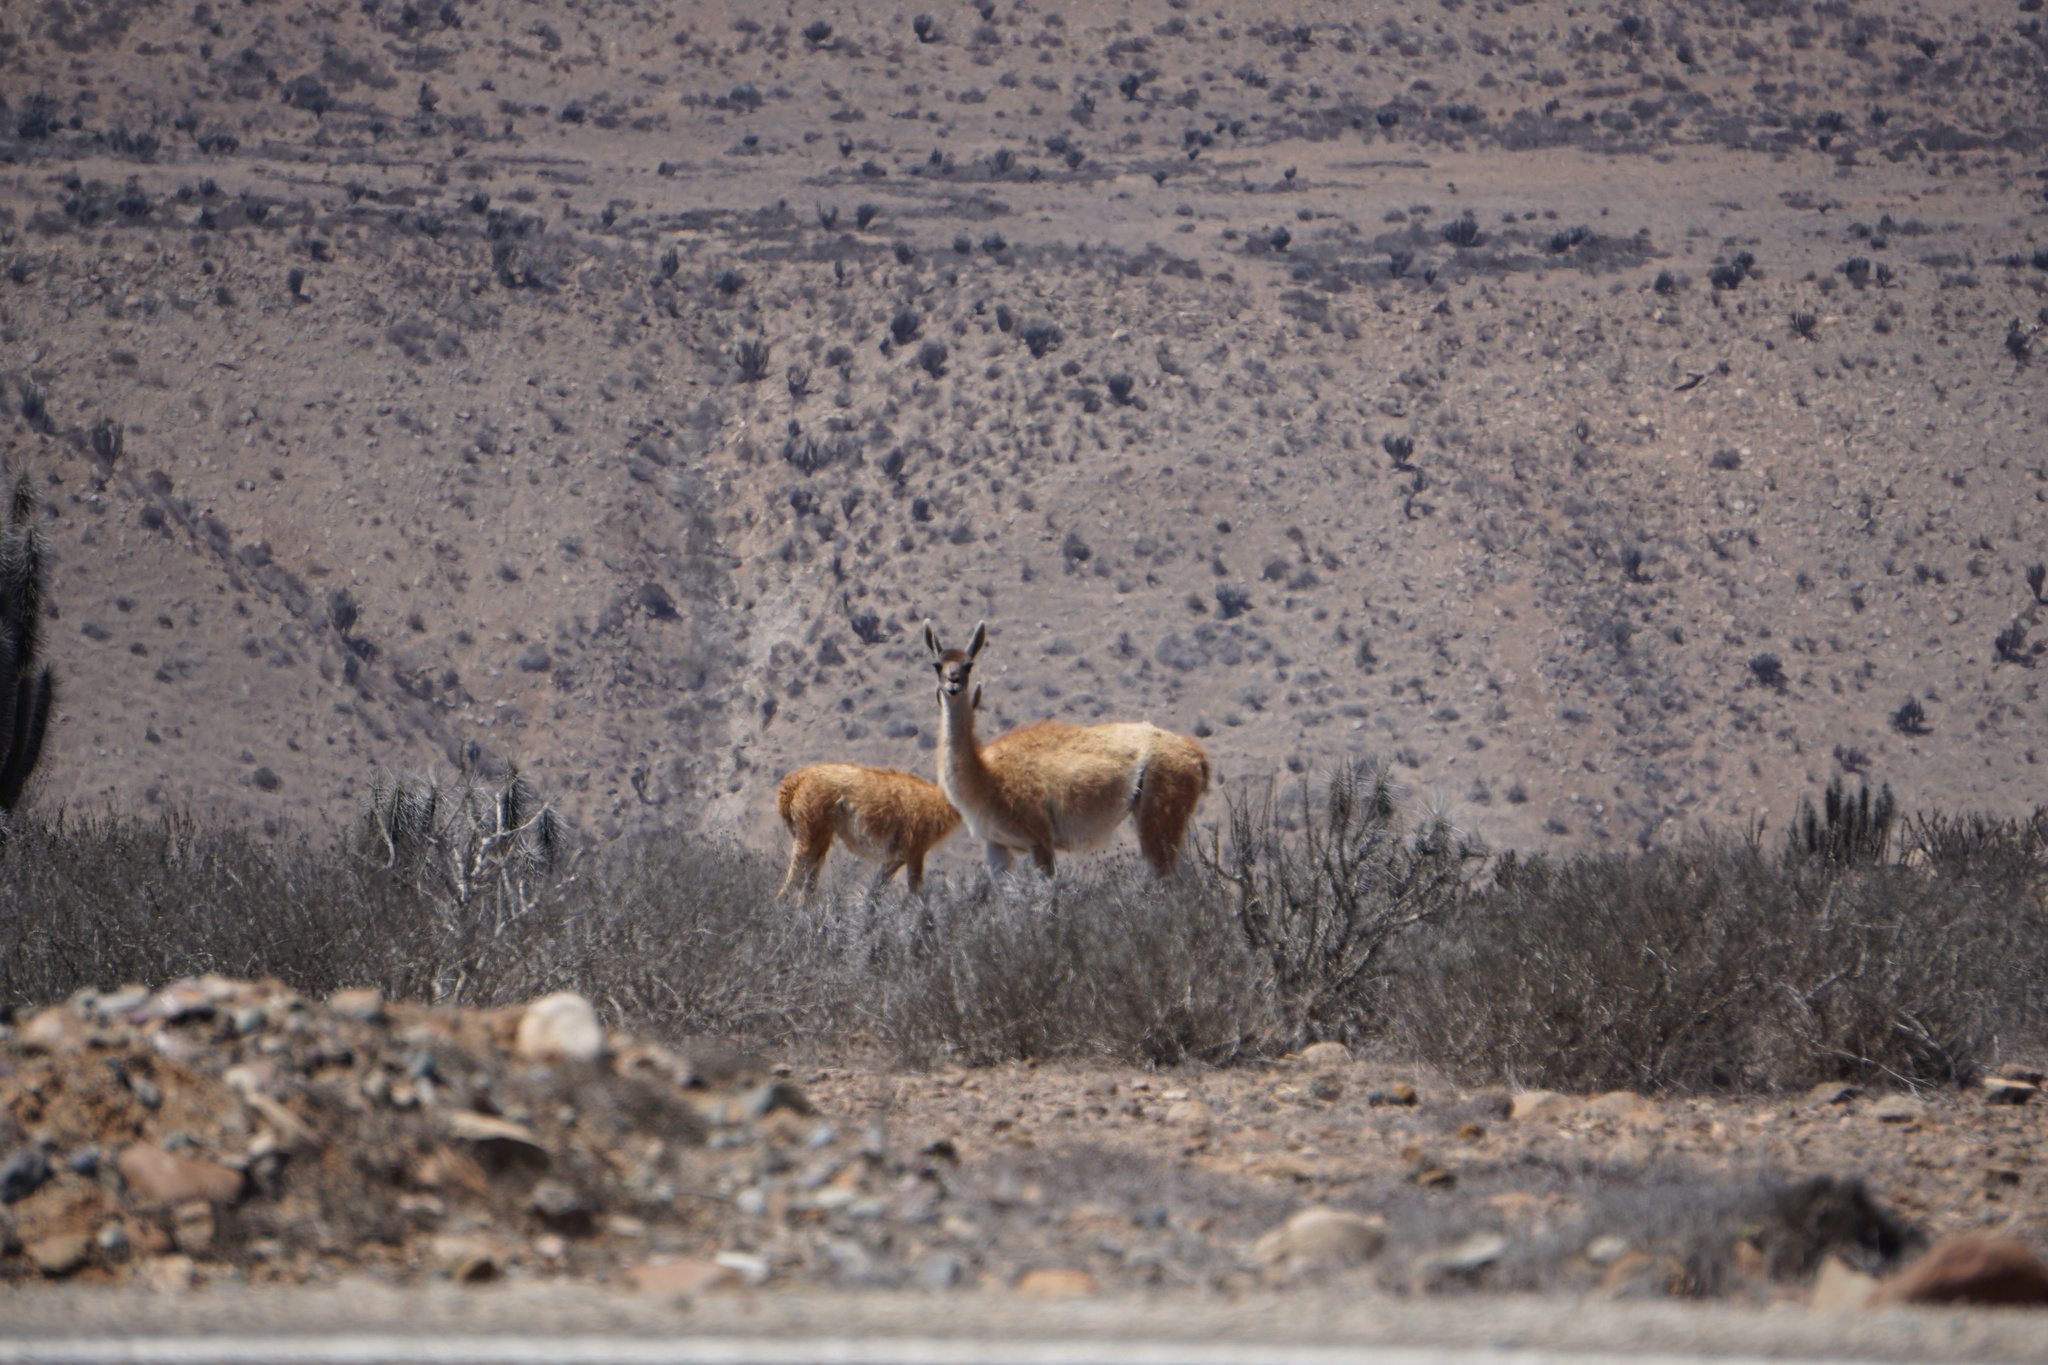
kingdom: Animalia
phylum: Chordata
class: Mammalia
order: Artiodactyla
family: Camelidae
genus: Lama
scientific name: Lama glama
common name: Llama
